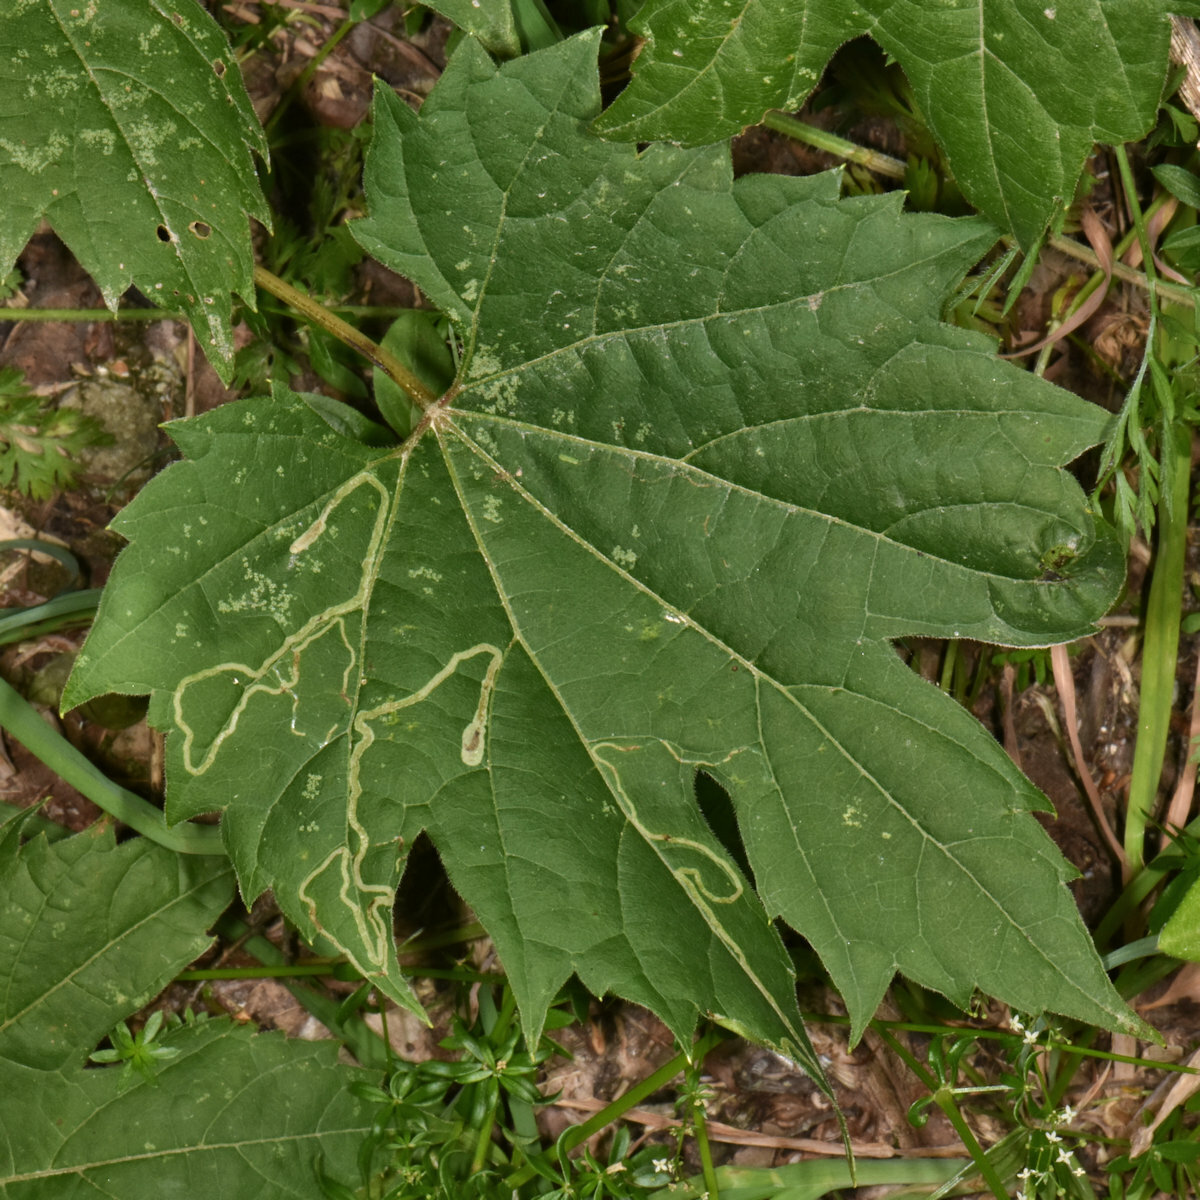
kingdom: Animalia
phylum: Arthropoda
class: Insecta
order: Lepidoptera
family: Gracillariidae
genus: Phyllocnistis
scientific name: Phyllocnistis vitifoliella
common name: Grape leaf-miner moth
